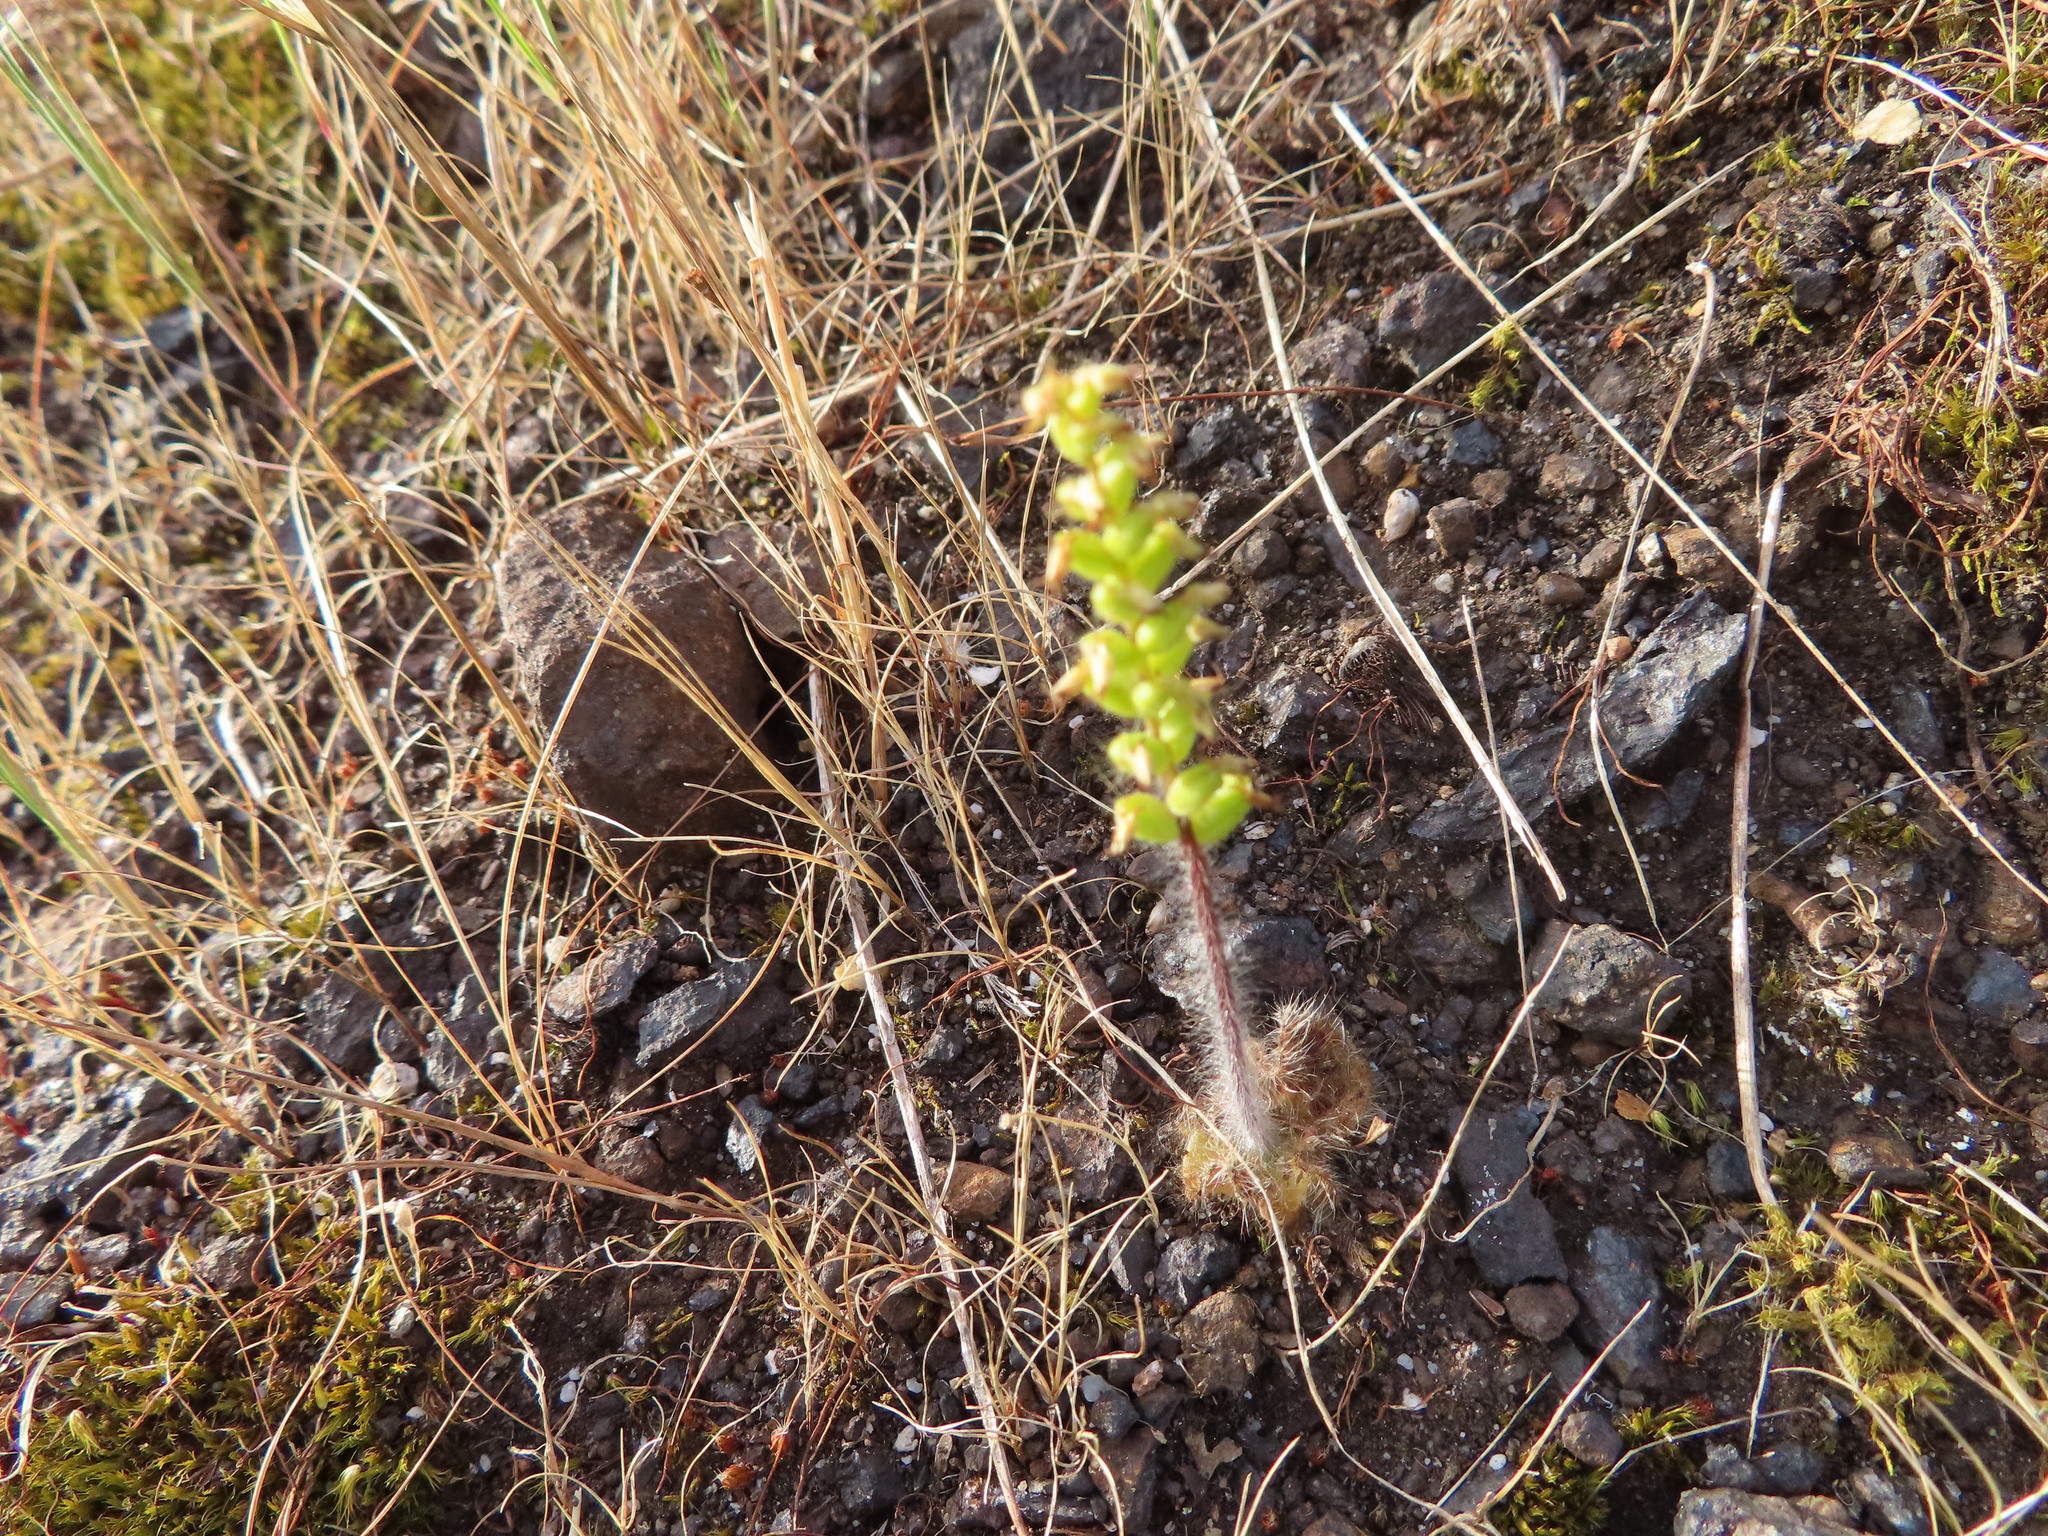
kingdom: Plantae
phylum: Tracheophyta
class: Liliopsida
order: Asparagales
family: Orchidaceae
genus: Holothrix
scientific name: Holothrix villosa
